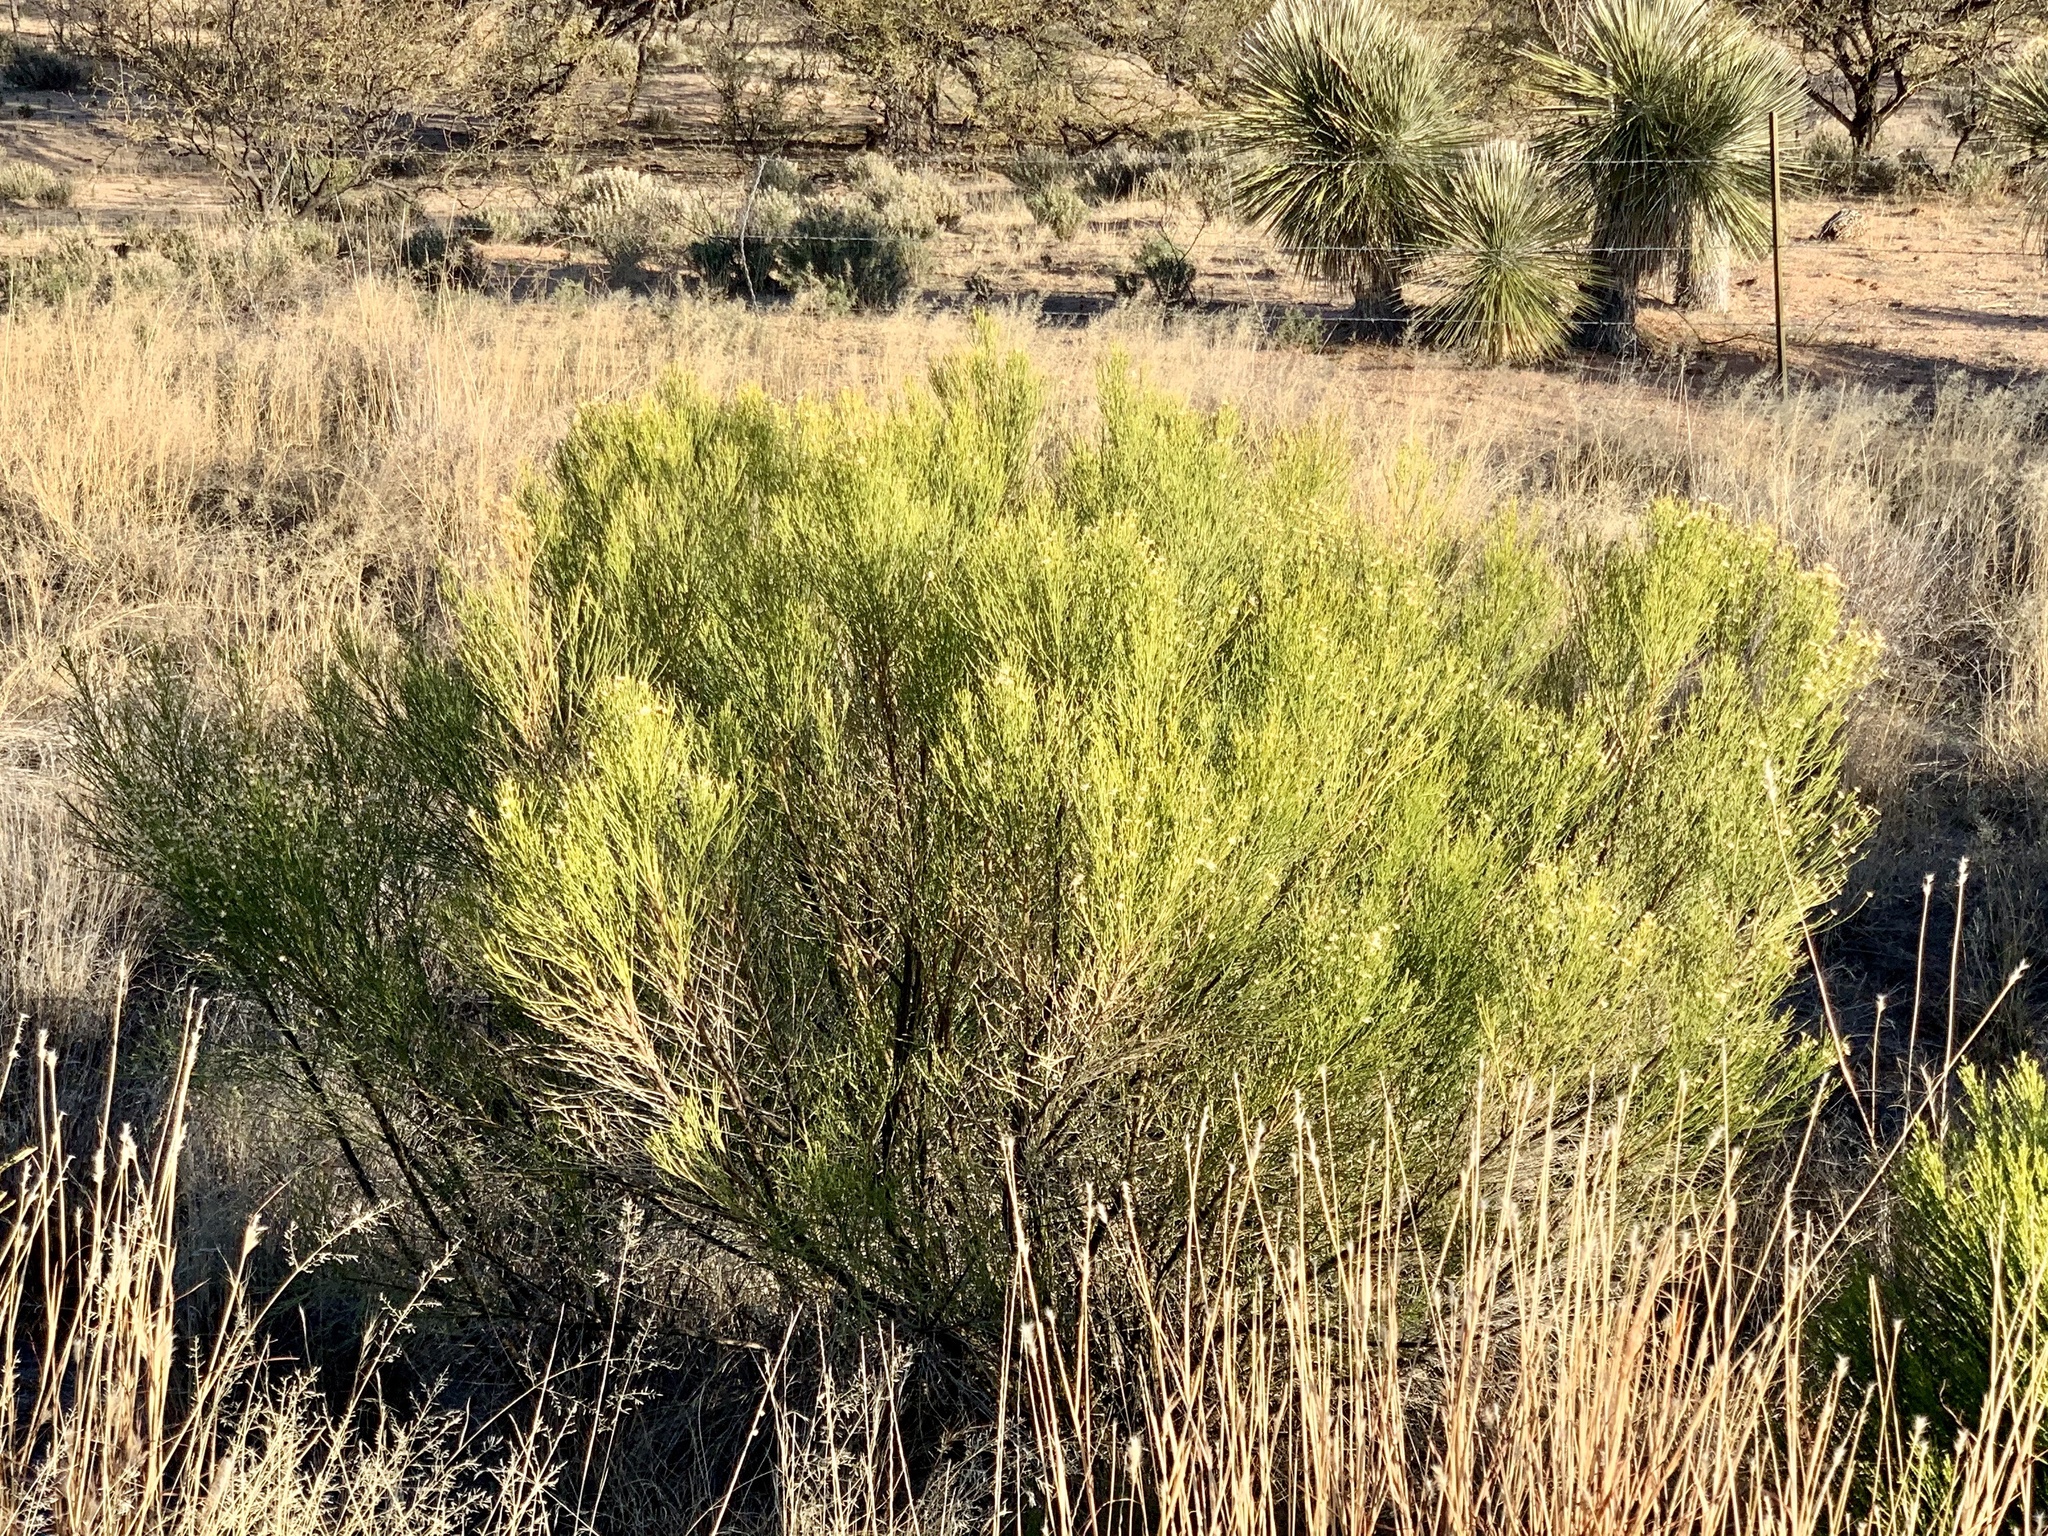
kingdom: Plantae
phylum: Tracheophyta
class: Magnoliopsida
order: Asterales
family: Asteraceae
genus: Baccharis
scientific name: Baccharis sarothroides
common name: Desert-broom
